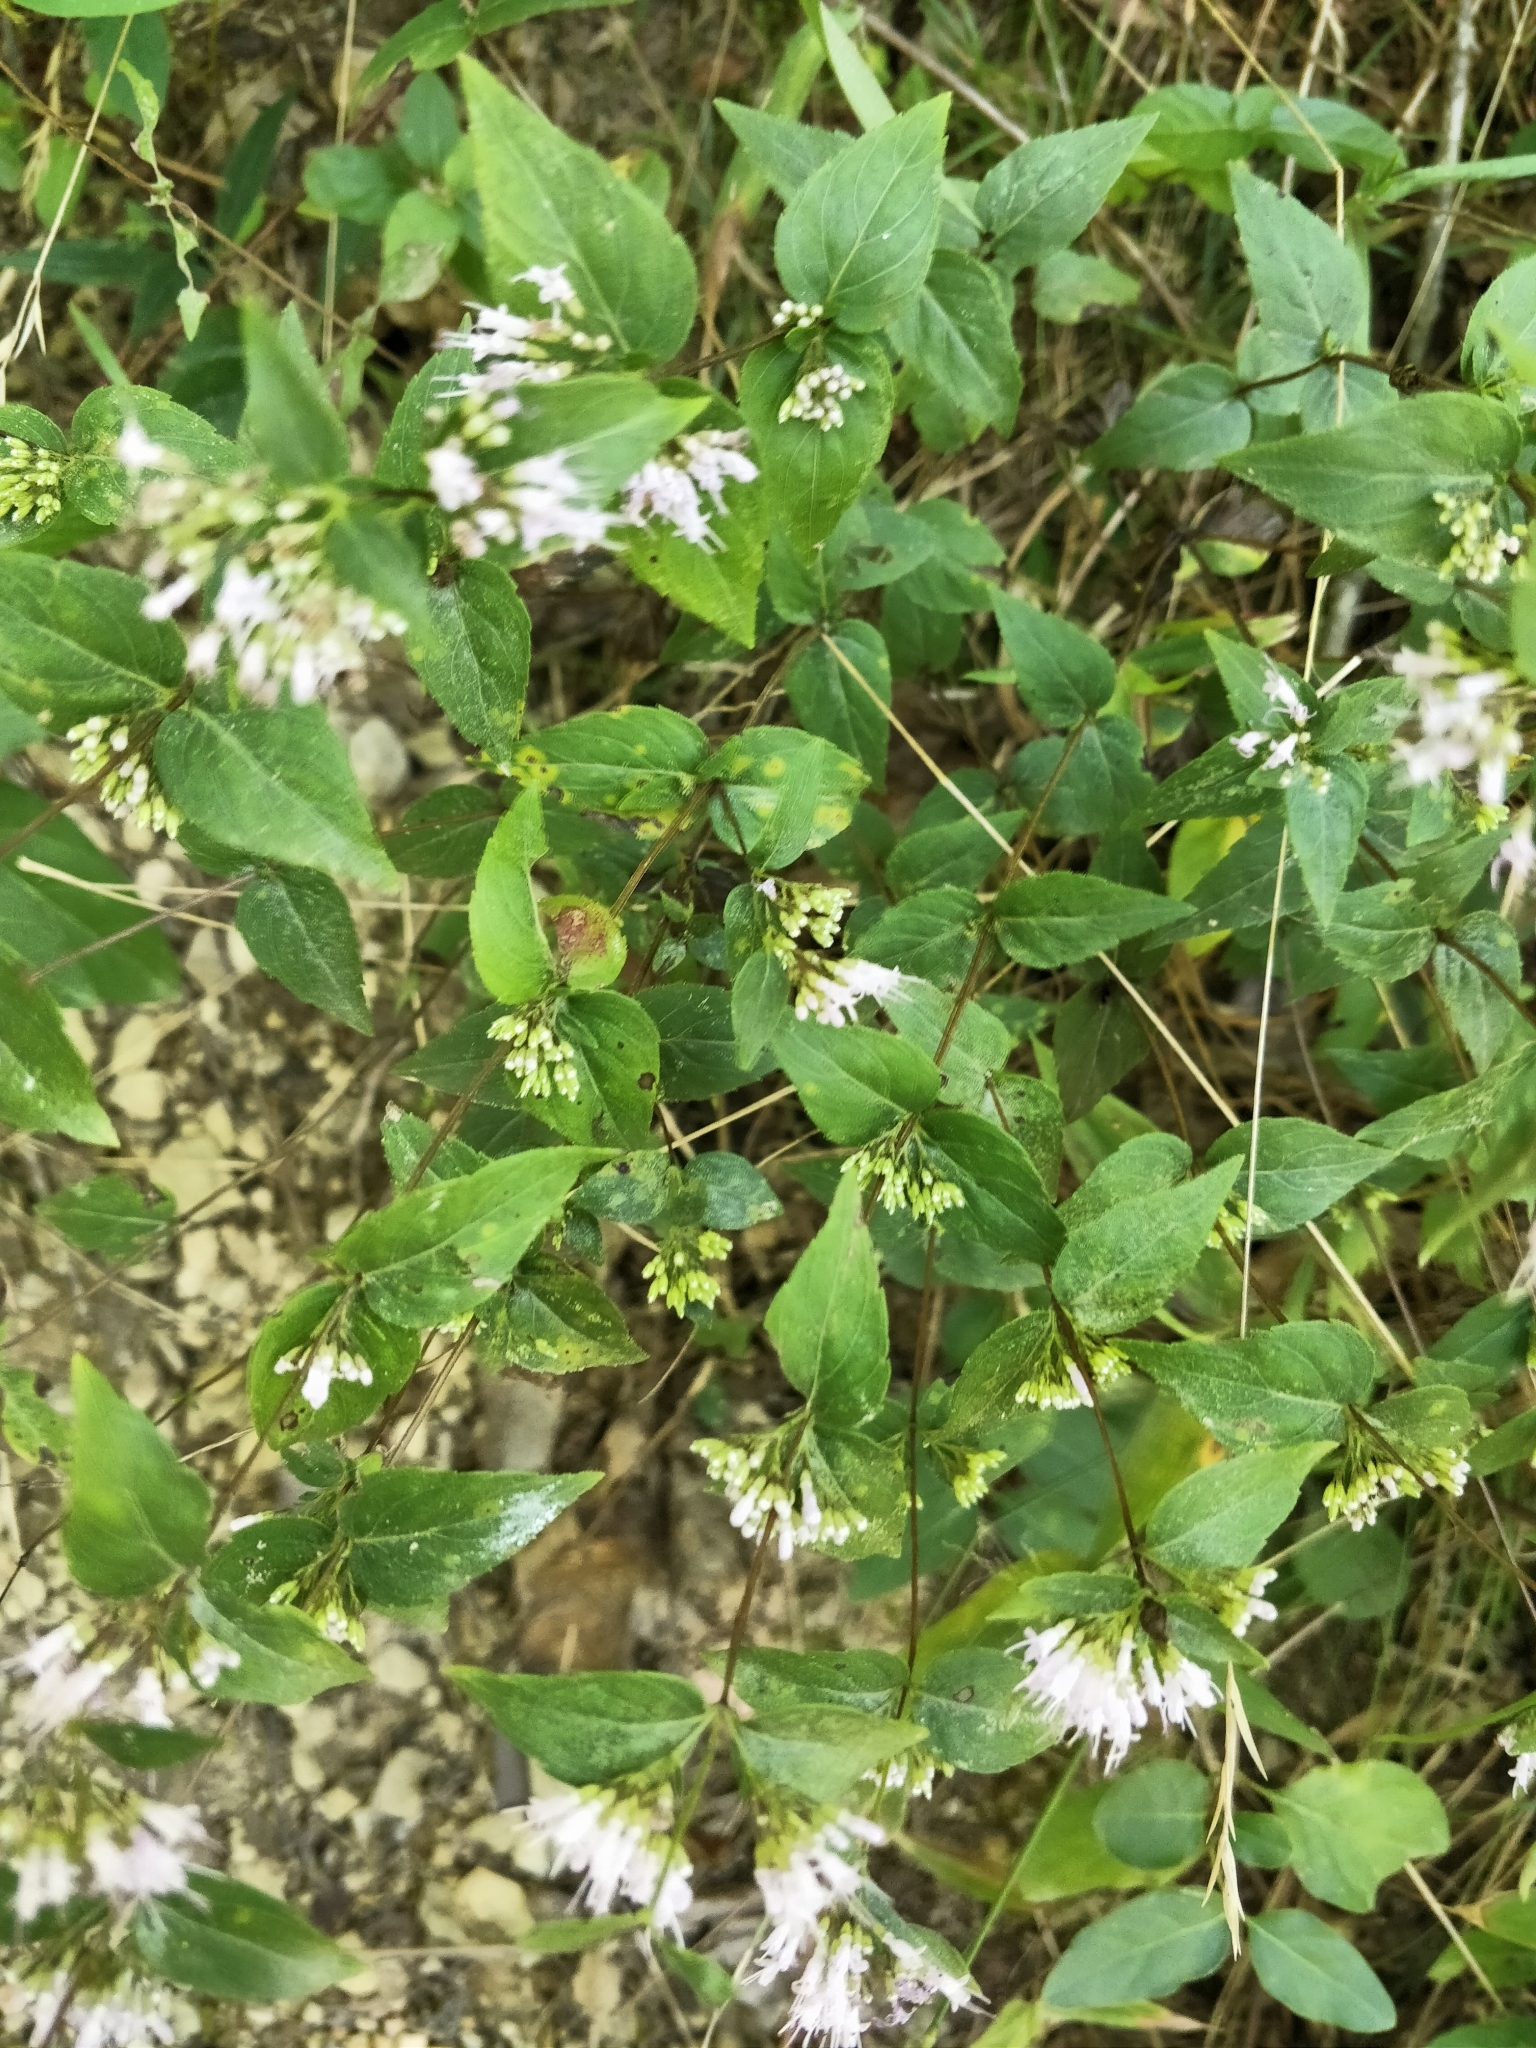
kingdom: Plantae
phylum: Tracheophyta
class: Magnoliopsida
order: Lamiales
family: Lamiaceae
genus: Cunila
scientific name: Cunila origanoides
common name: American dittany
